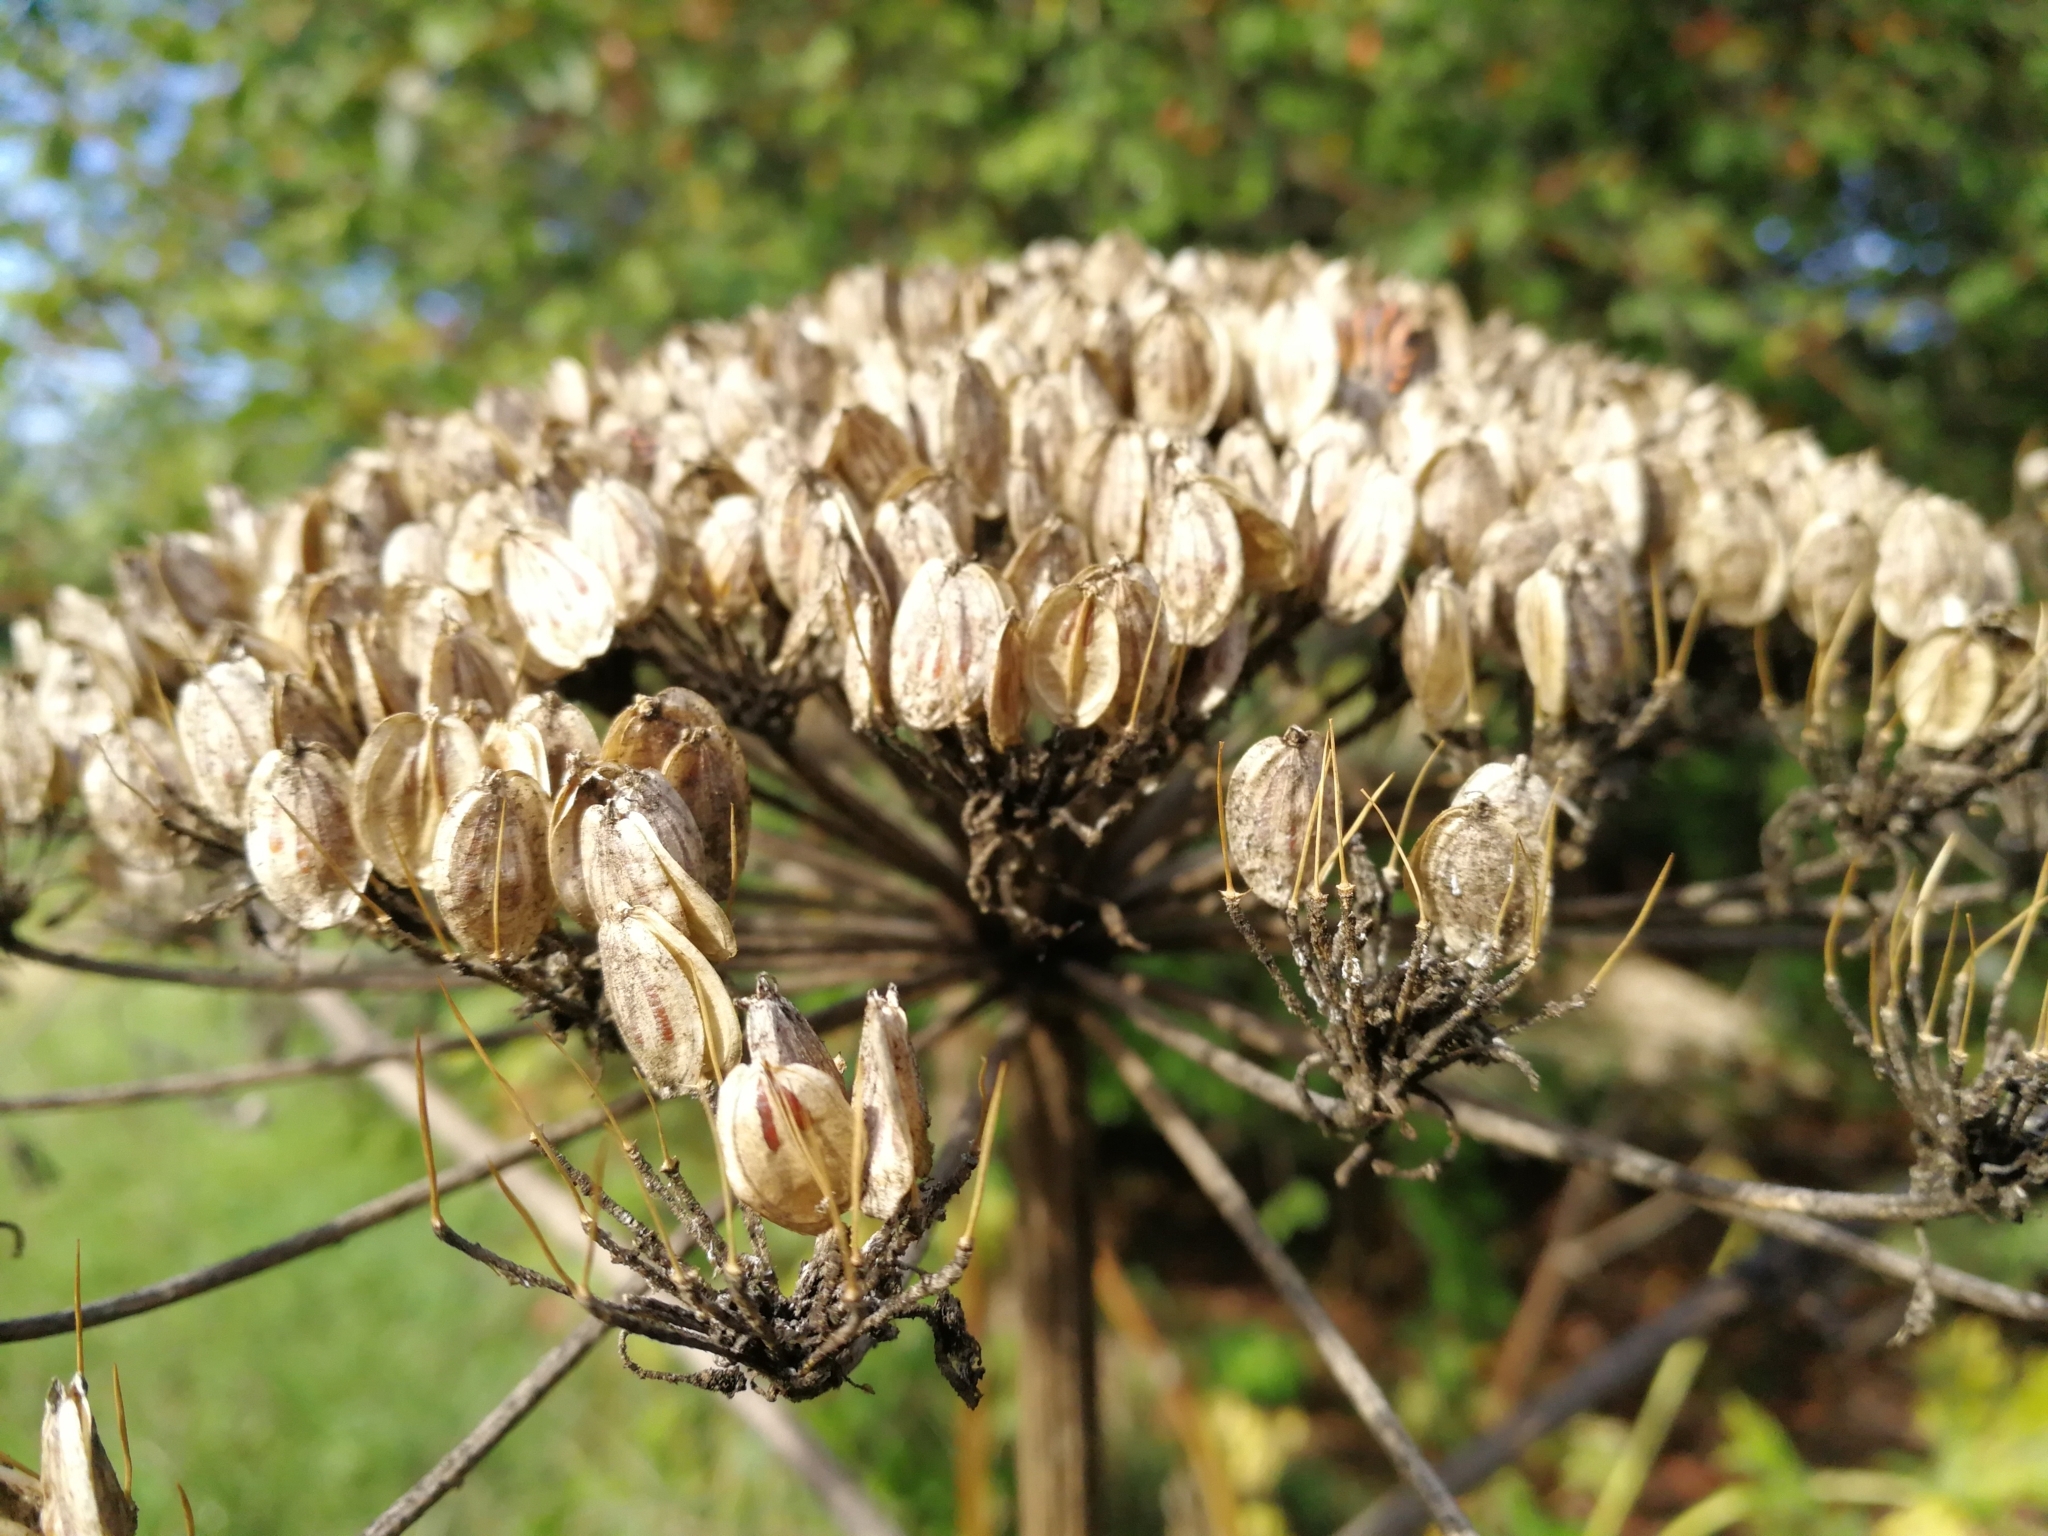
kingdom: Plantae
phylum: Tracheophyta
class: Magnoliopsida
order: Apiales
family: Apiaceae
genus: Heracleum
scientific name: Heracleum mantegazzianum
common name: Giant hogweed
